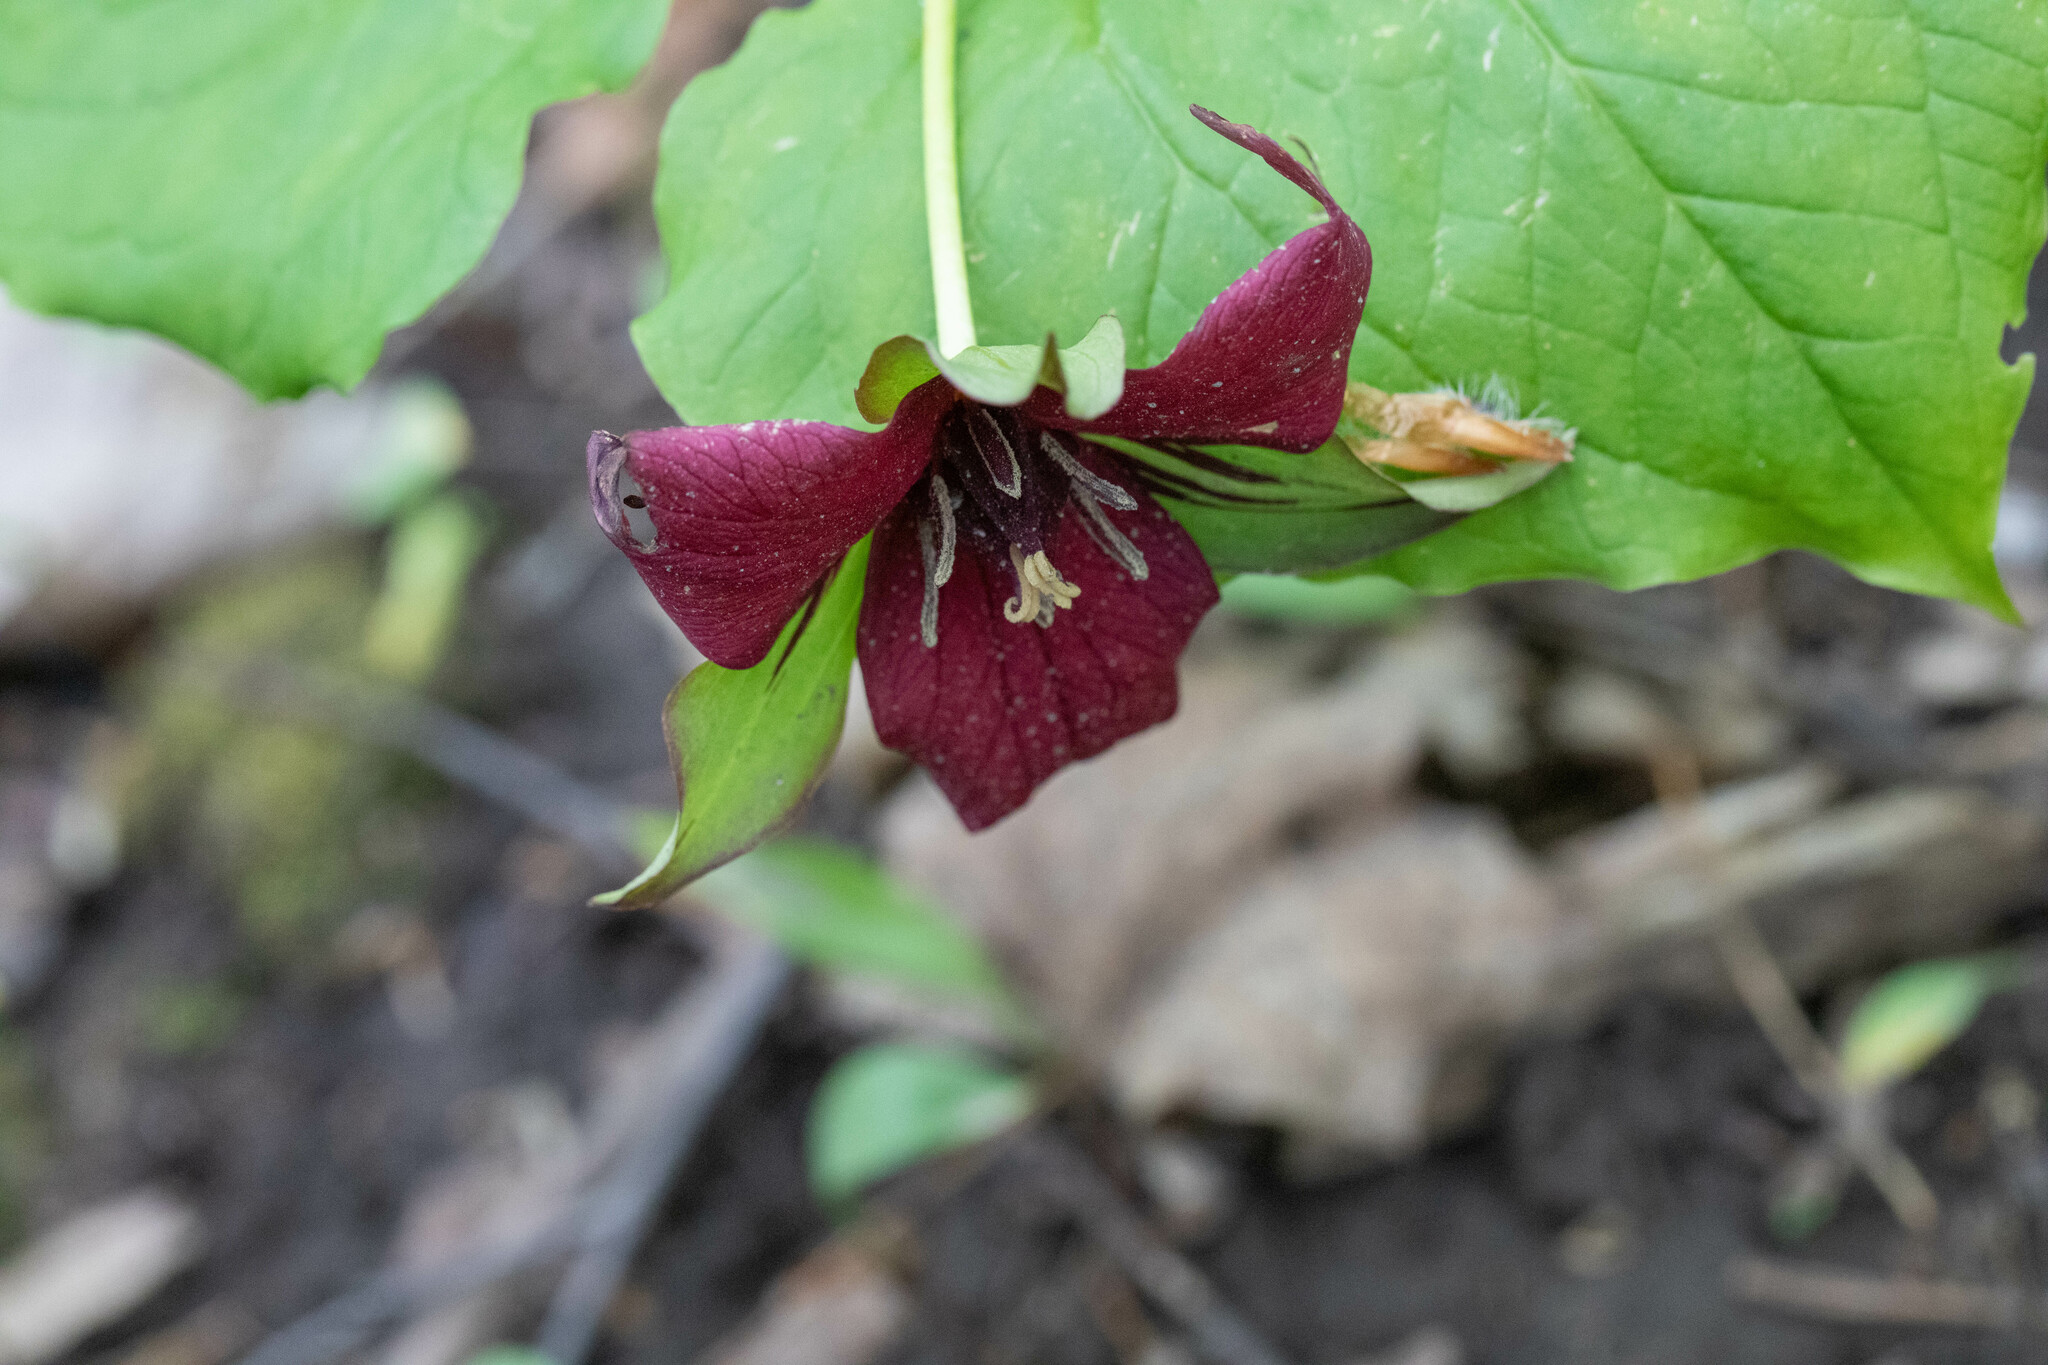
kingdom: Plantae
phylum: Tracheophyta
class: Liliopsida
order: Liliales
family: Melanthiaceae
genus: Trillium
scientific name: Trillium erectum
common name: Purple trillium
